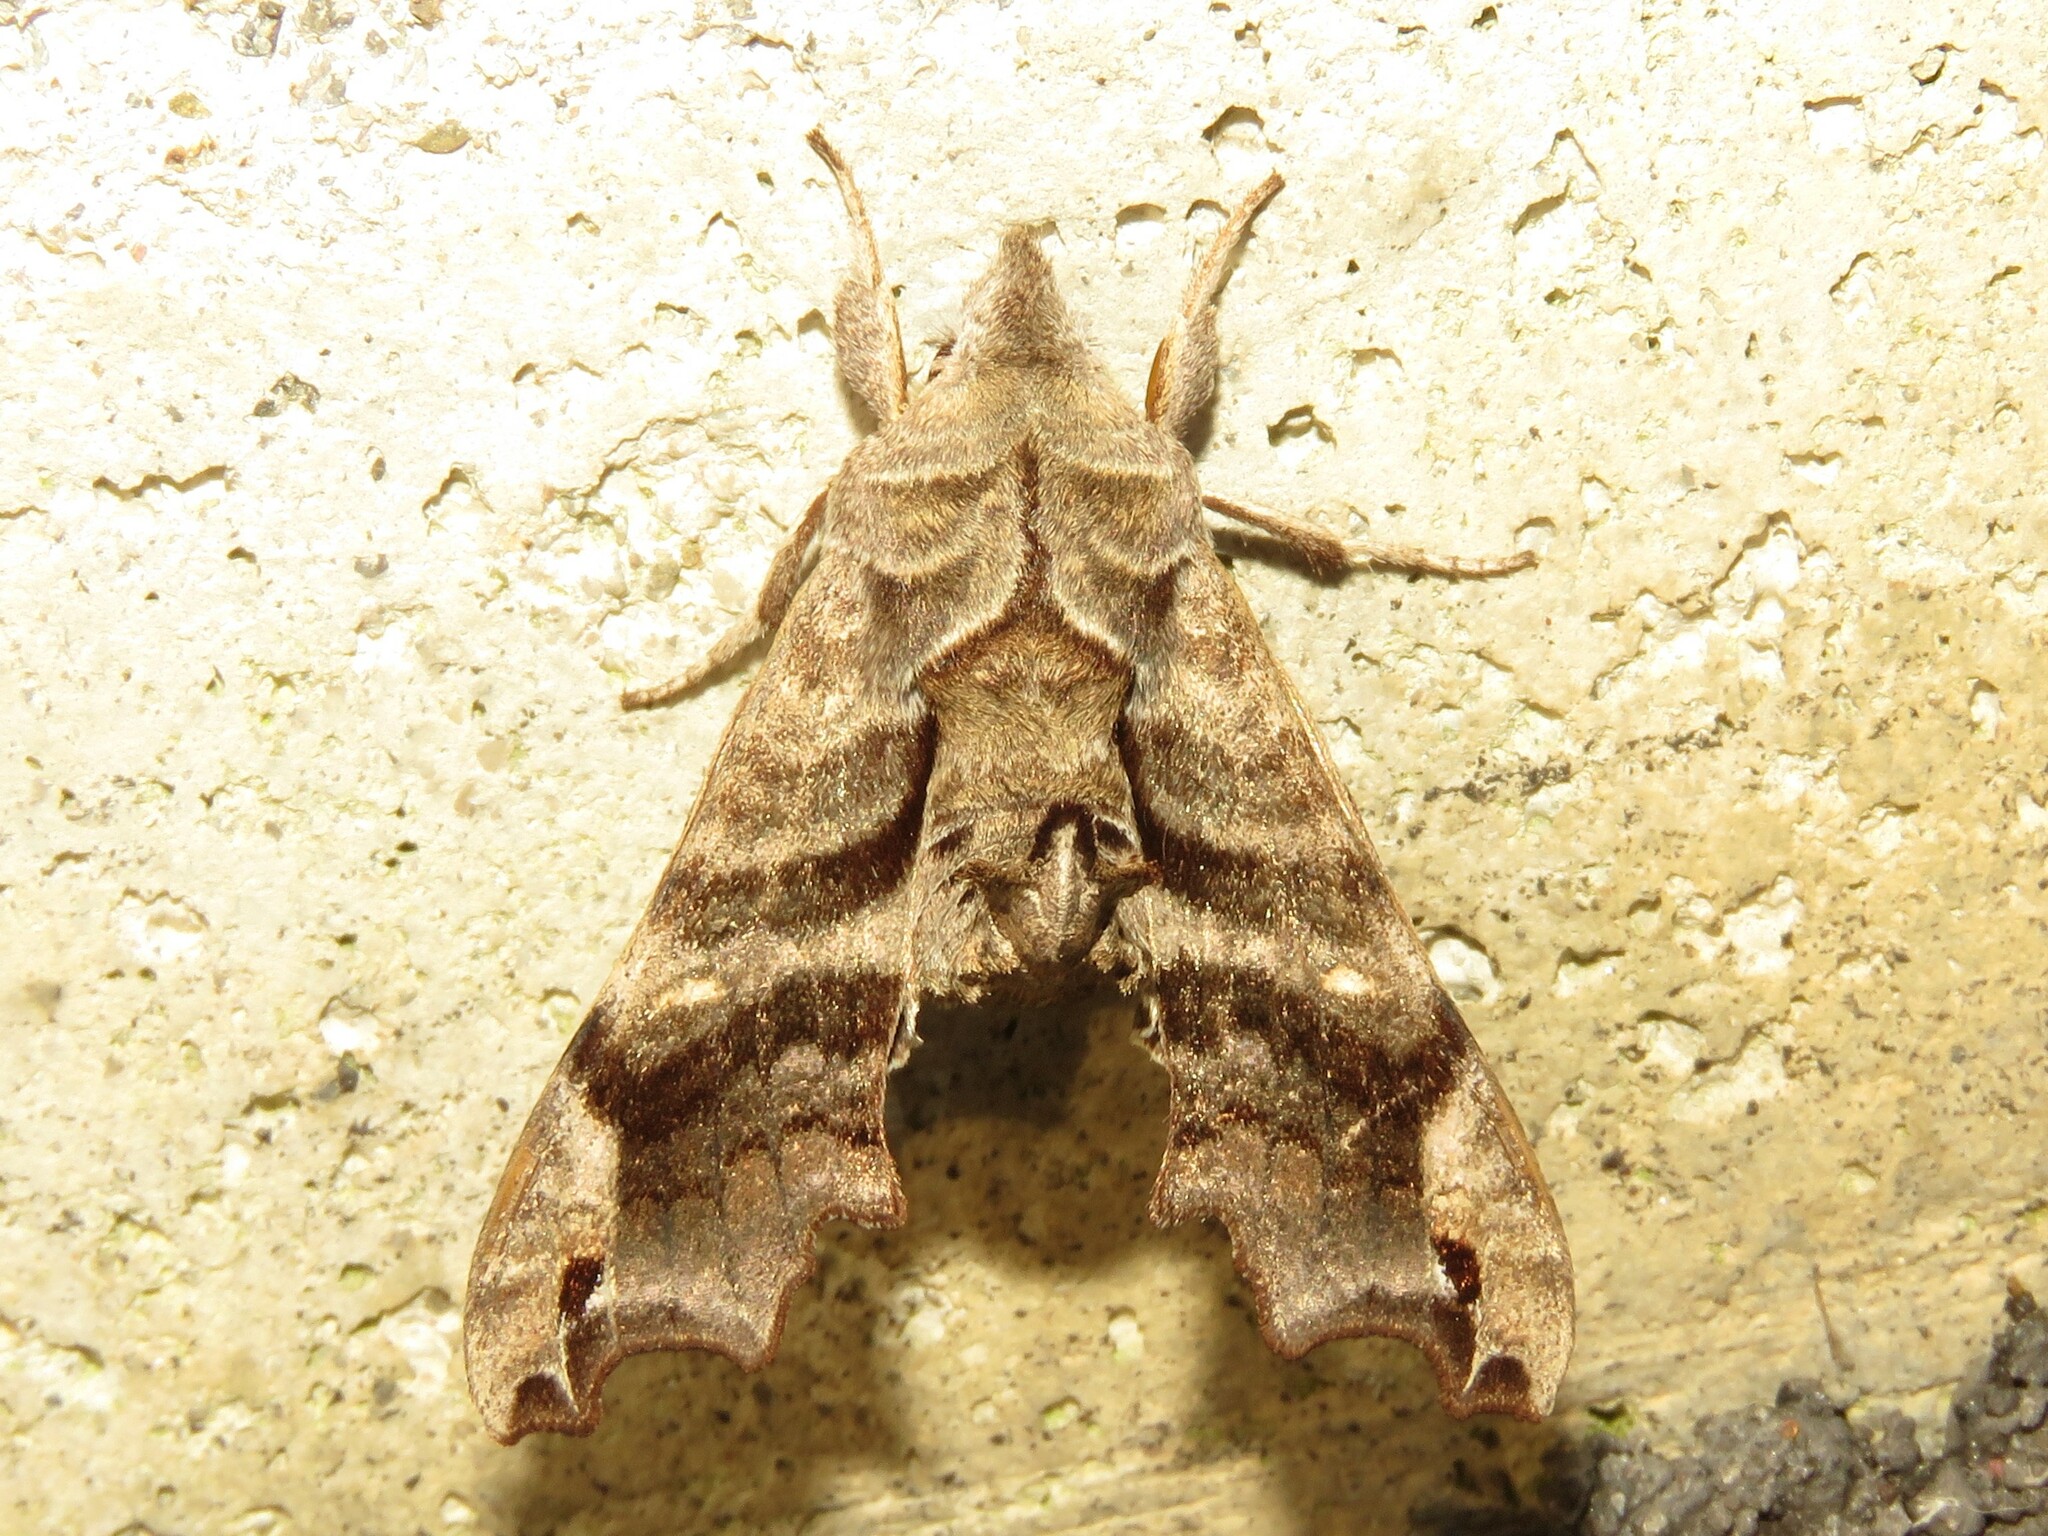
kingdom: Animalia
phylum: Arthropoda
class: Insecta
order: Lepidoptera
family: Sphingidae
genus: Deidamia
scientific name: Deidamia inscriptum
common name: Lettered sphinx
